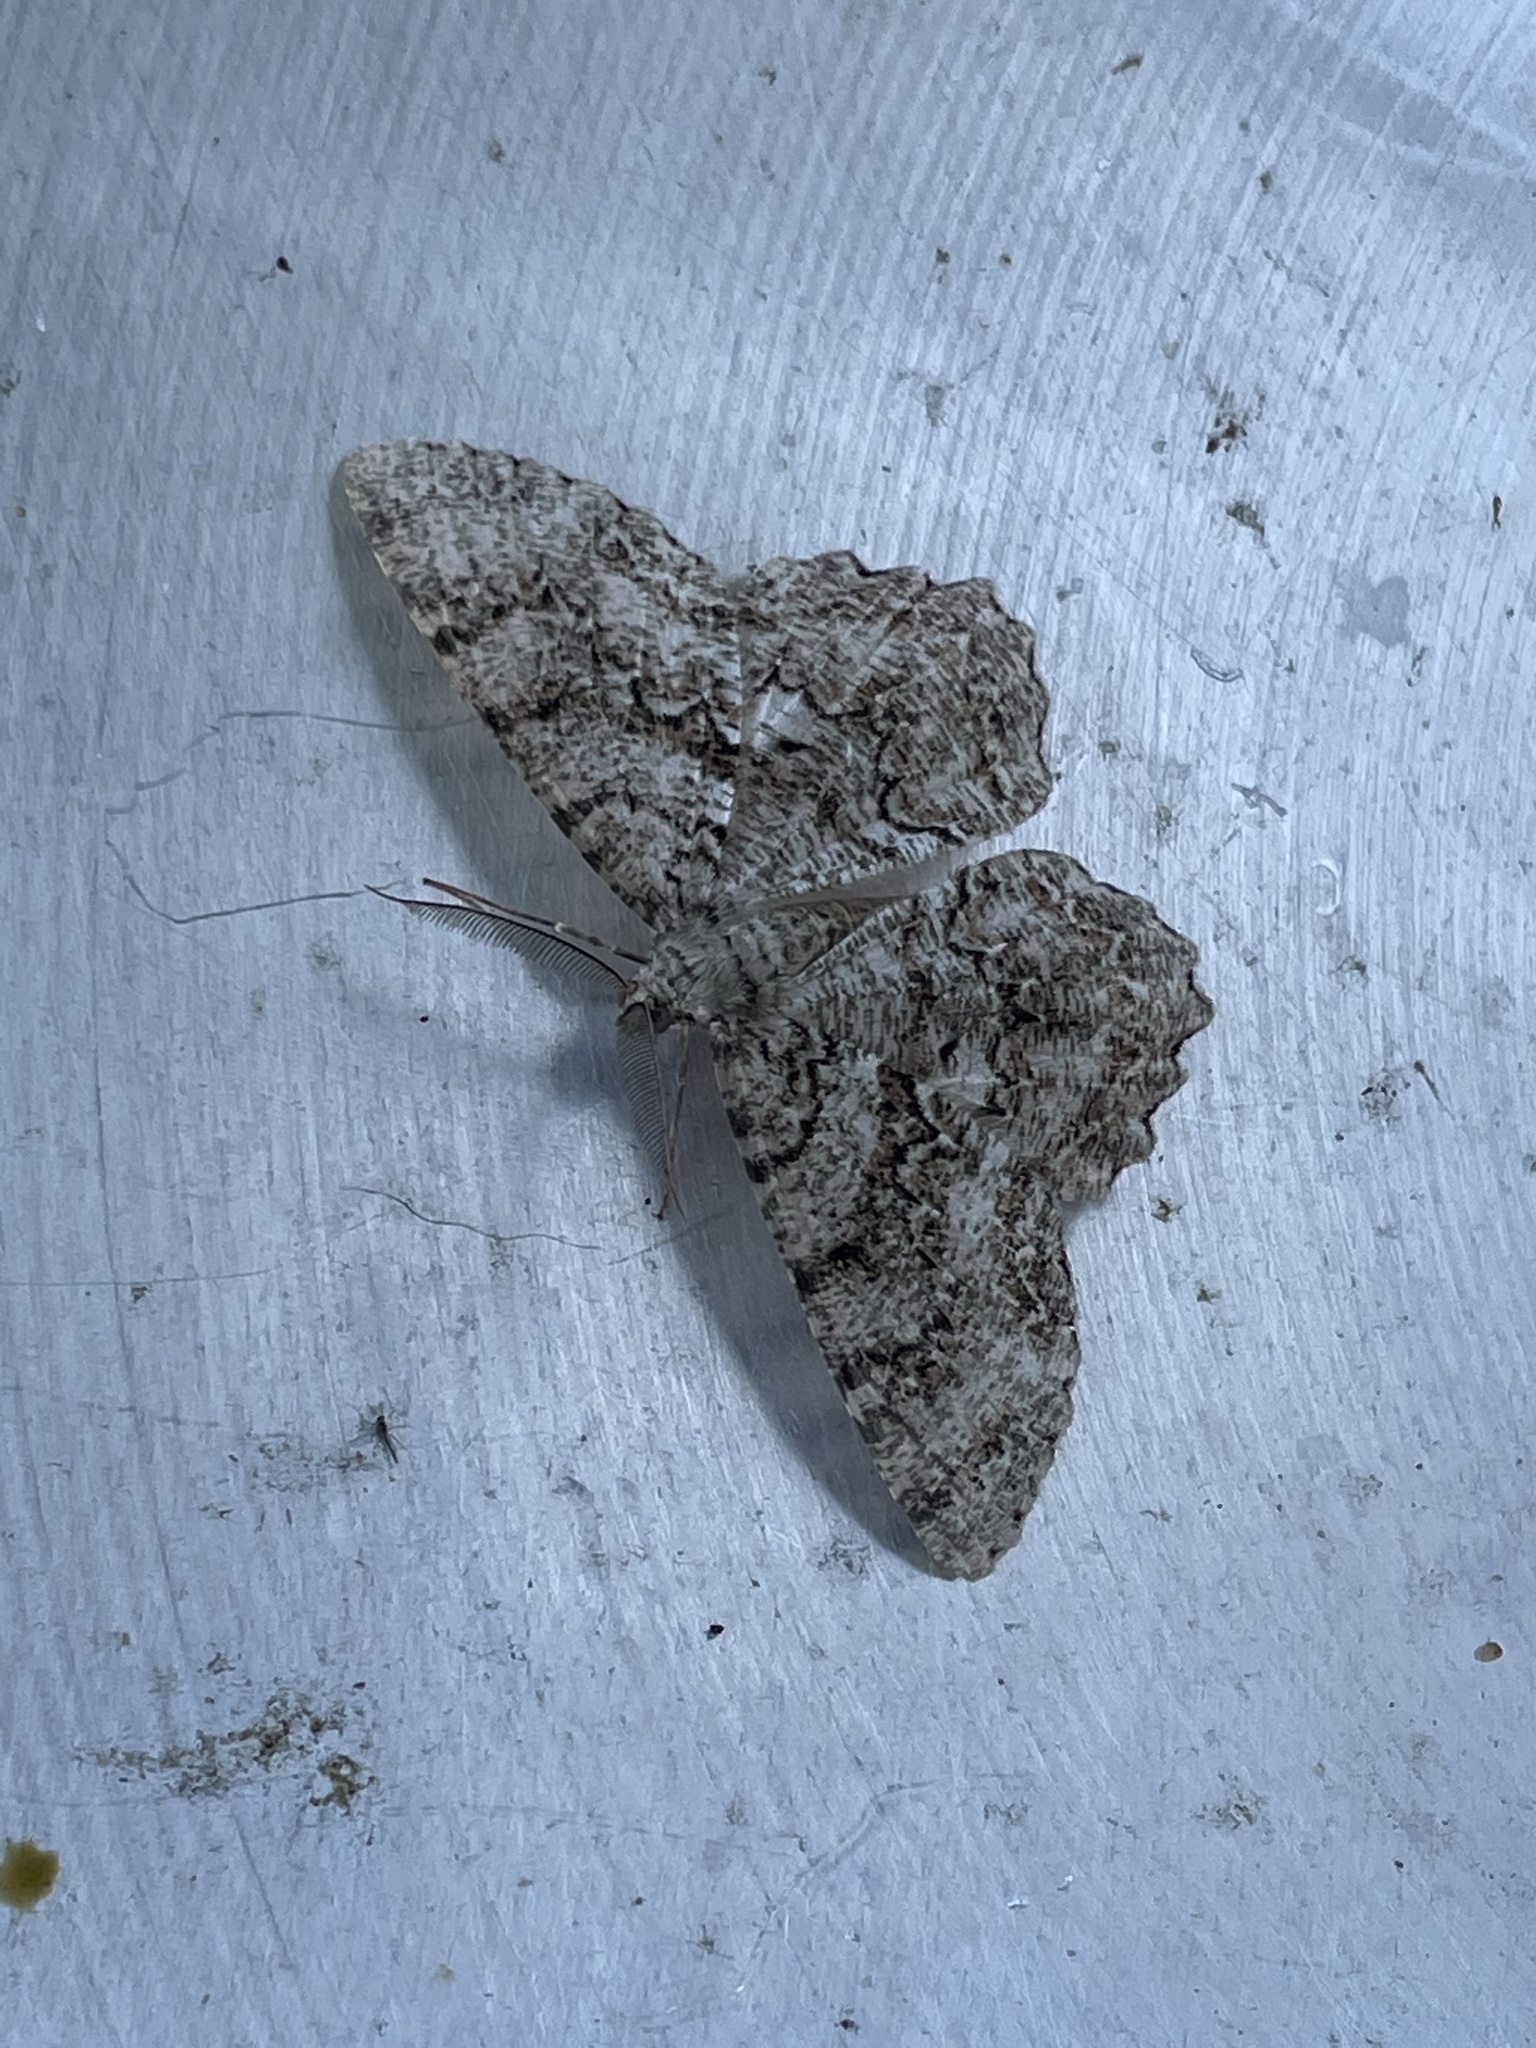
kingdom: Animalia
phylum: Arthropoda
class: Insecta
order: Lepidoptera
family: Geometridae
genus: Epimecis
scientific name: Epimecis hortaria
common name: Tulip-tree beauty
